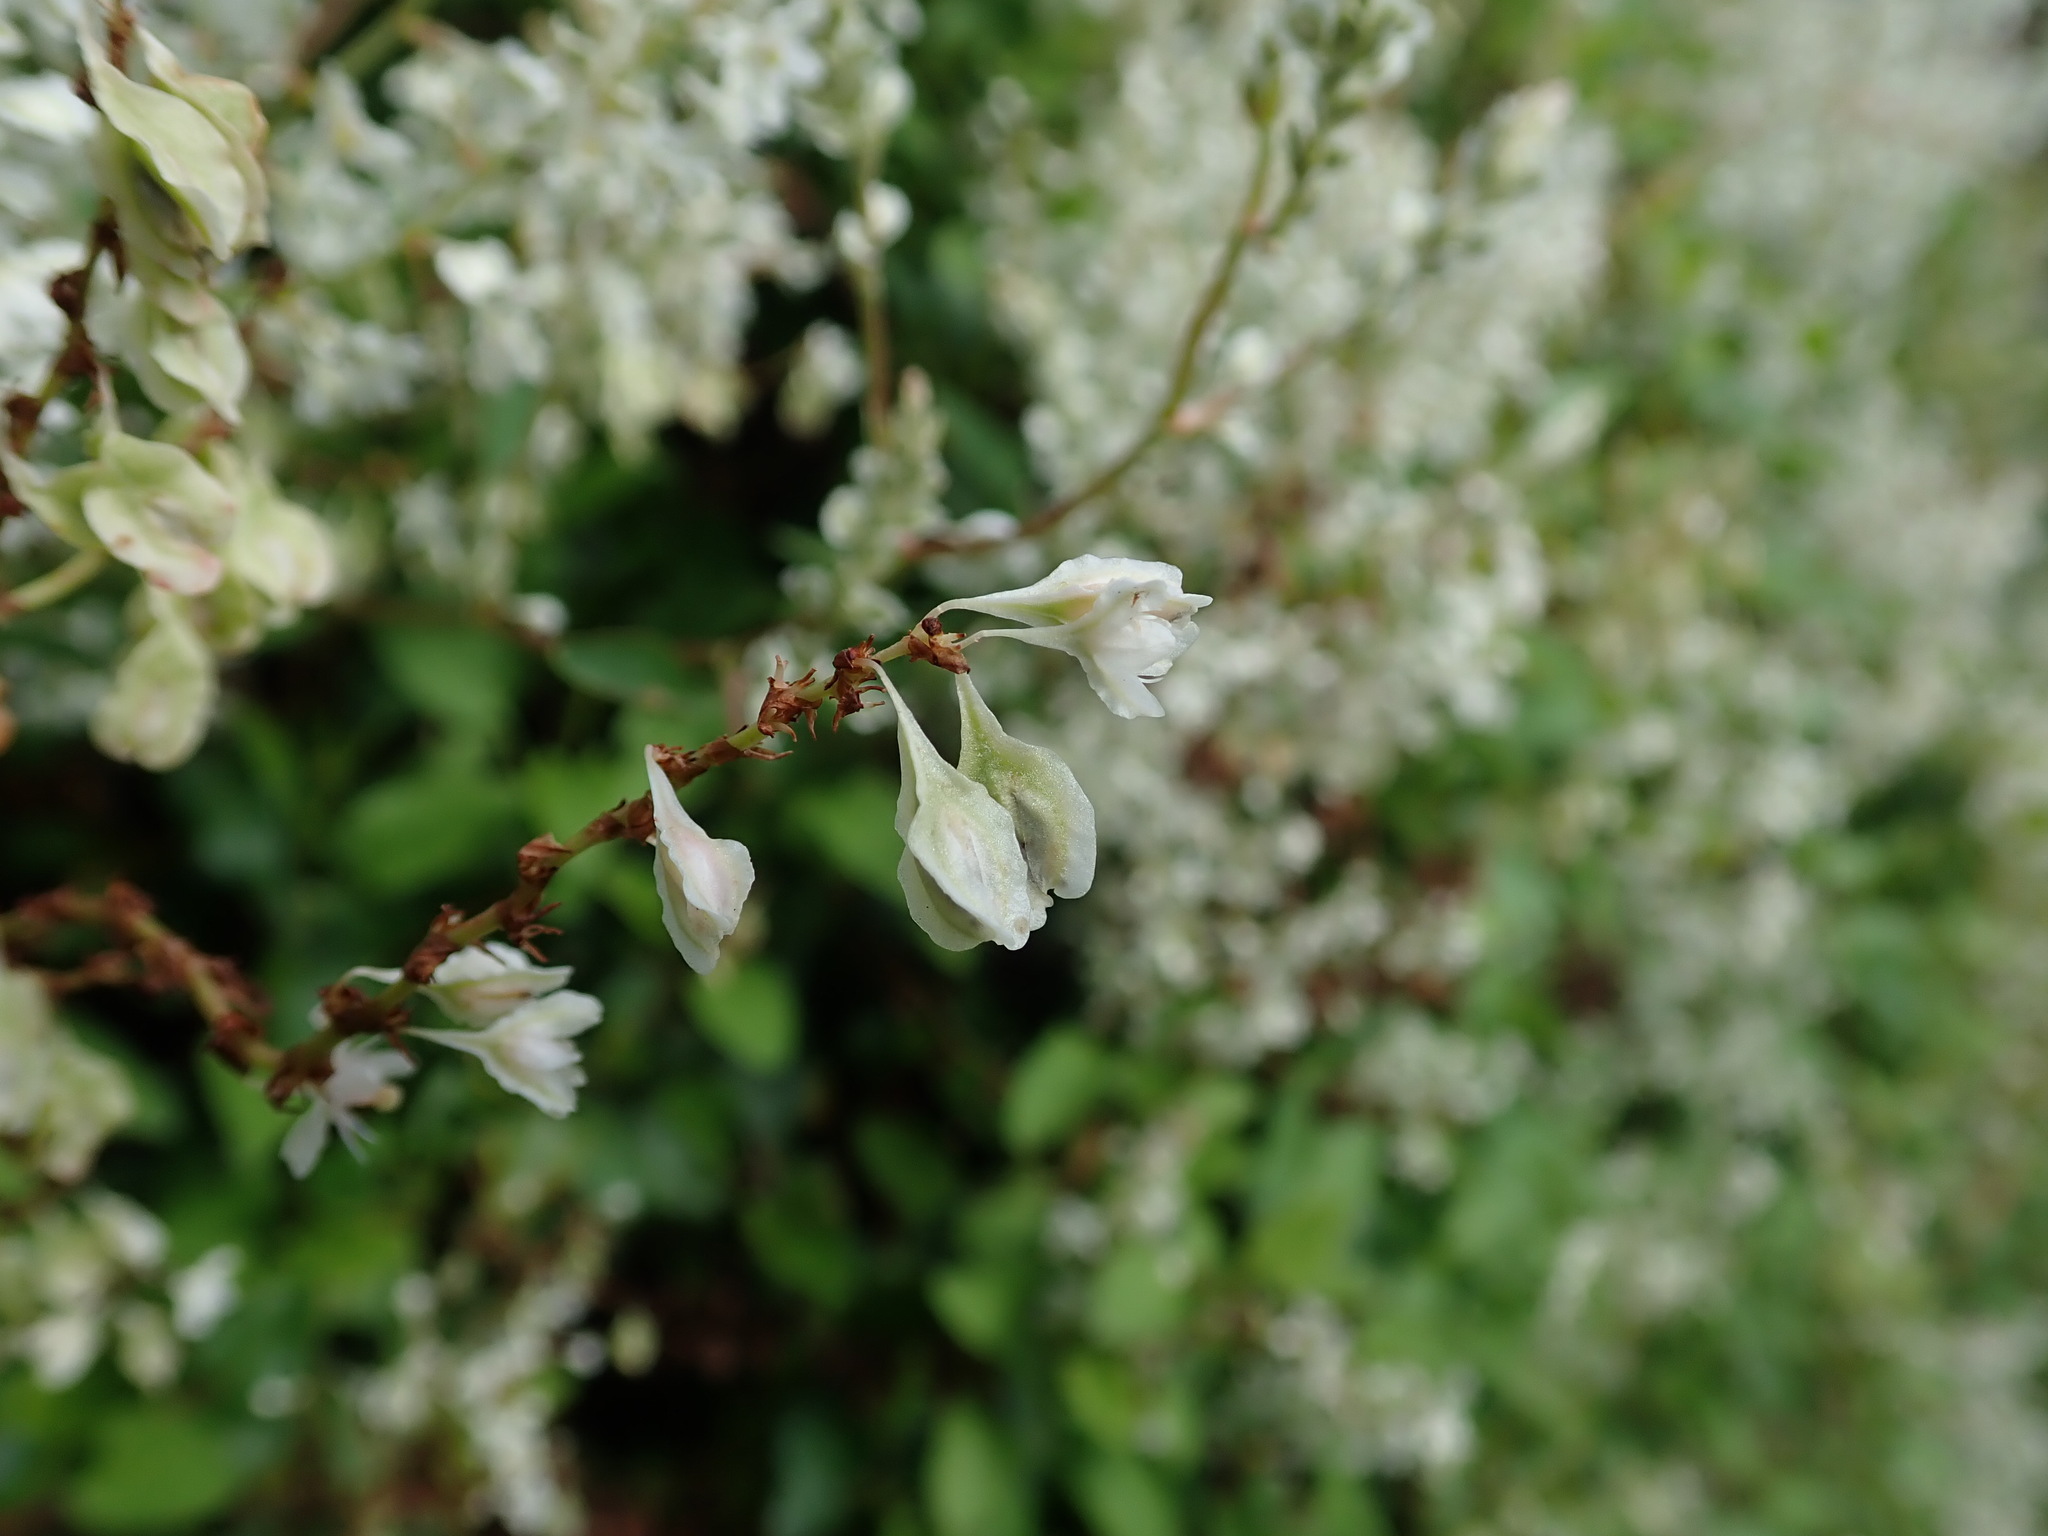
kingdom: Plantae
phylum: Tracheophyta
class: Magnoliopsida
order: Caryophyllales
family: Polygonaceae
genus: Fallopia
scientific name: Fallopia baldschuanica
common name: Russian-vine
